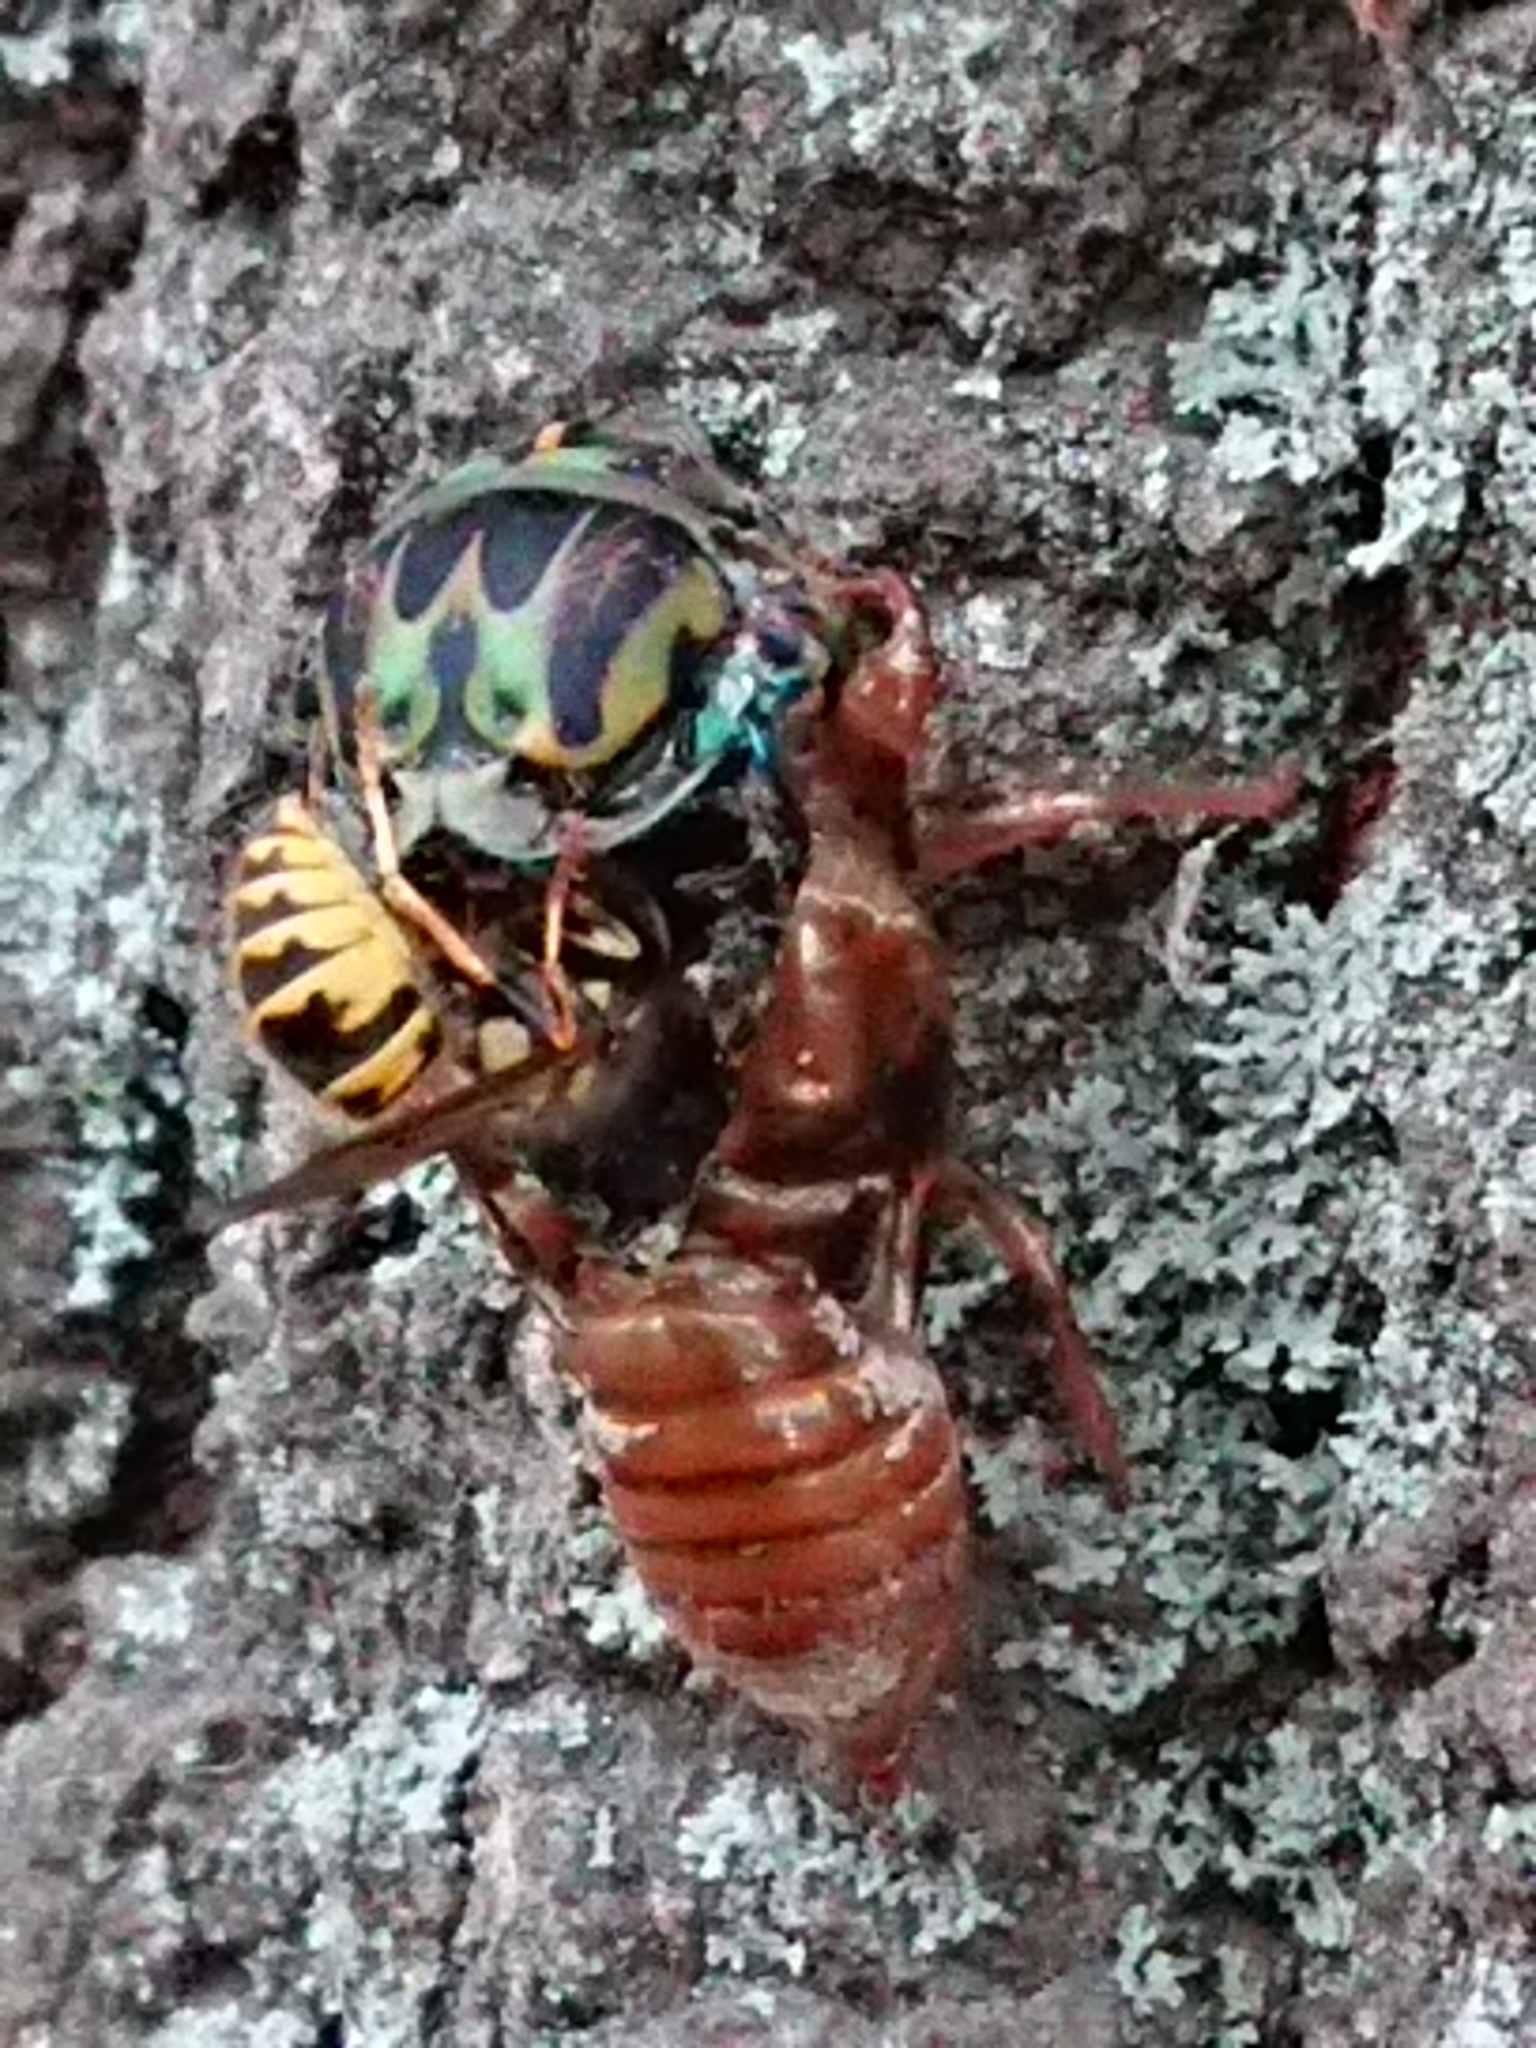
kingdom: Animalia
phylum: Arthropoda
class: Insecta
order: Hymenoptera
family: Vespidae
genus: Vespula
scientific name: Vespula vulgaris
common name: Common wasp
